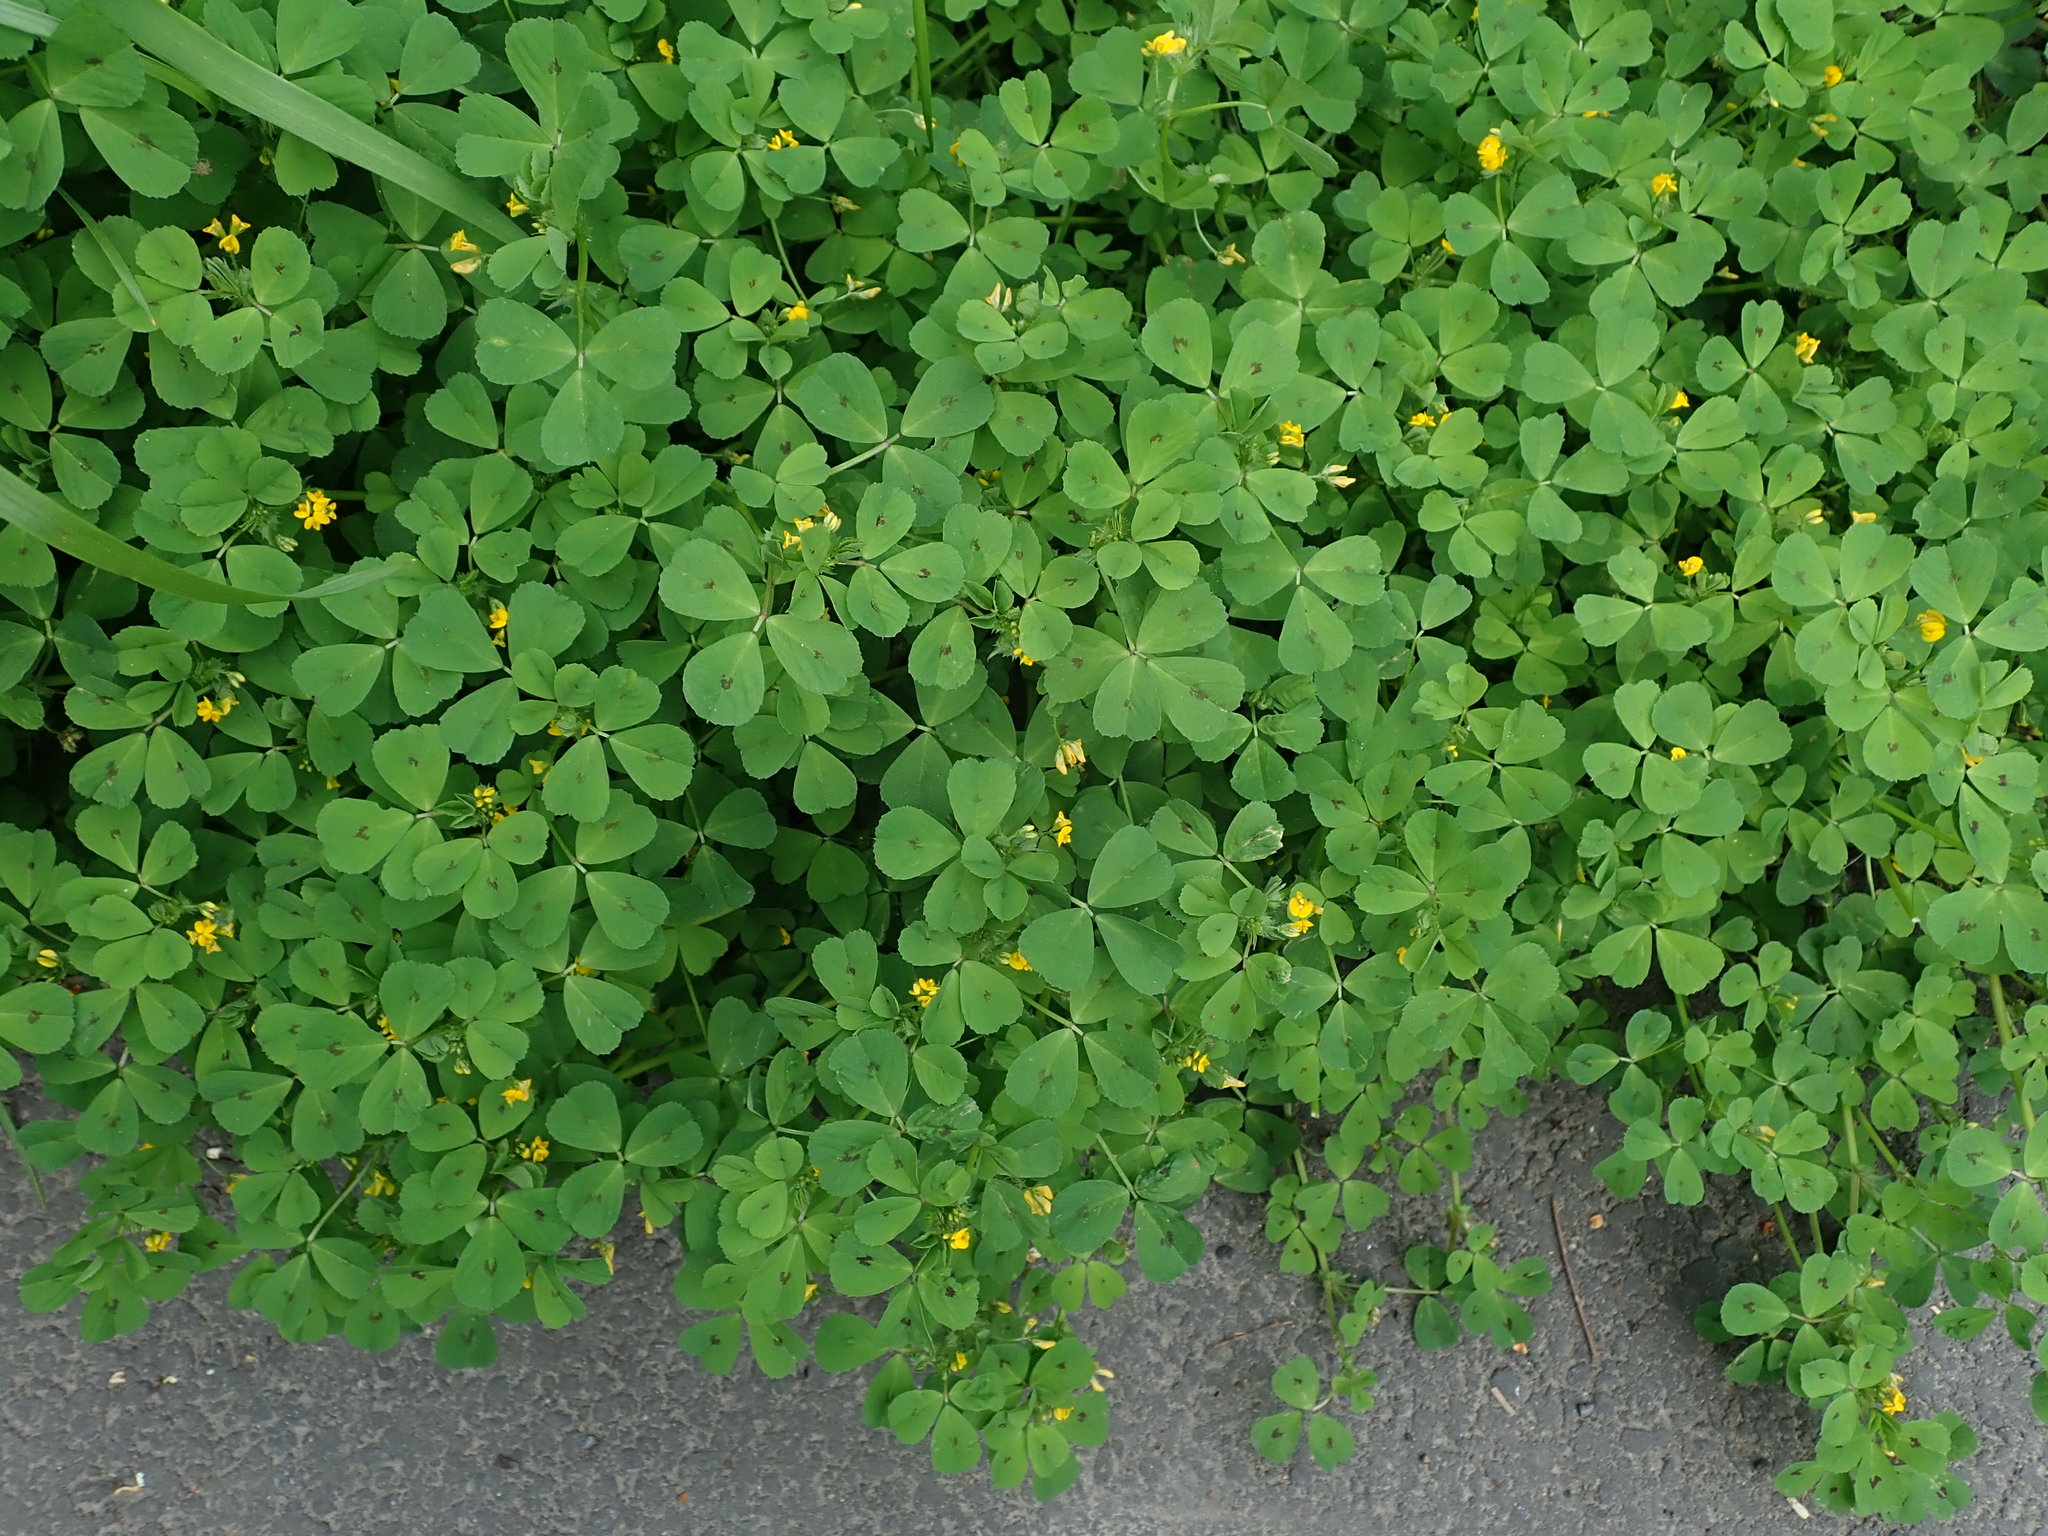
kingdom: Plantae
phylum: Tracheophyta
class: Magnoliopsida
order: Fabales
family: Fabaceae
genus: Medicago
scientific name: Medicago arabica
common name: Spotted medick
